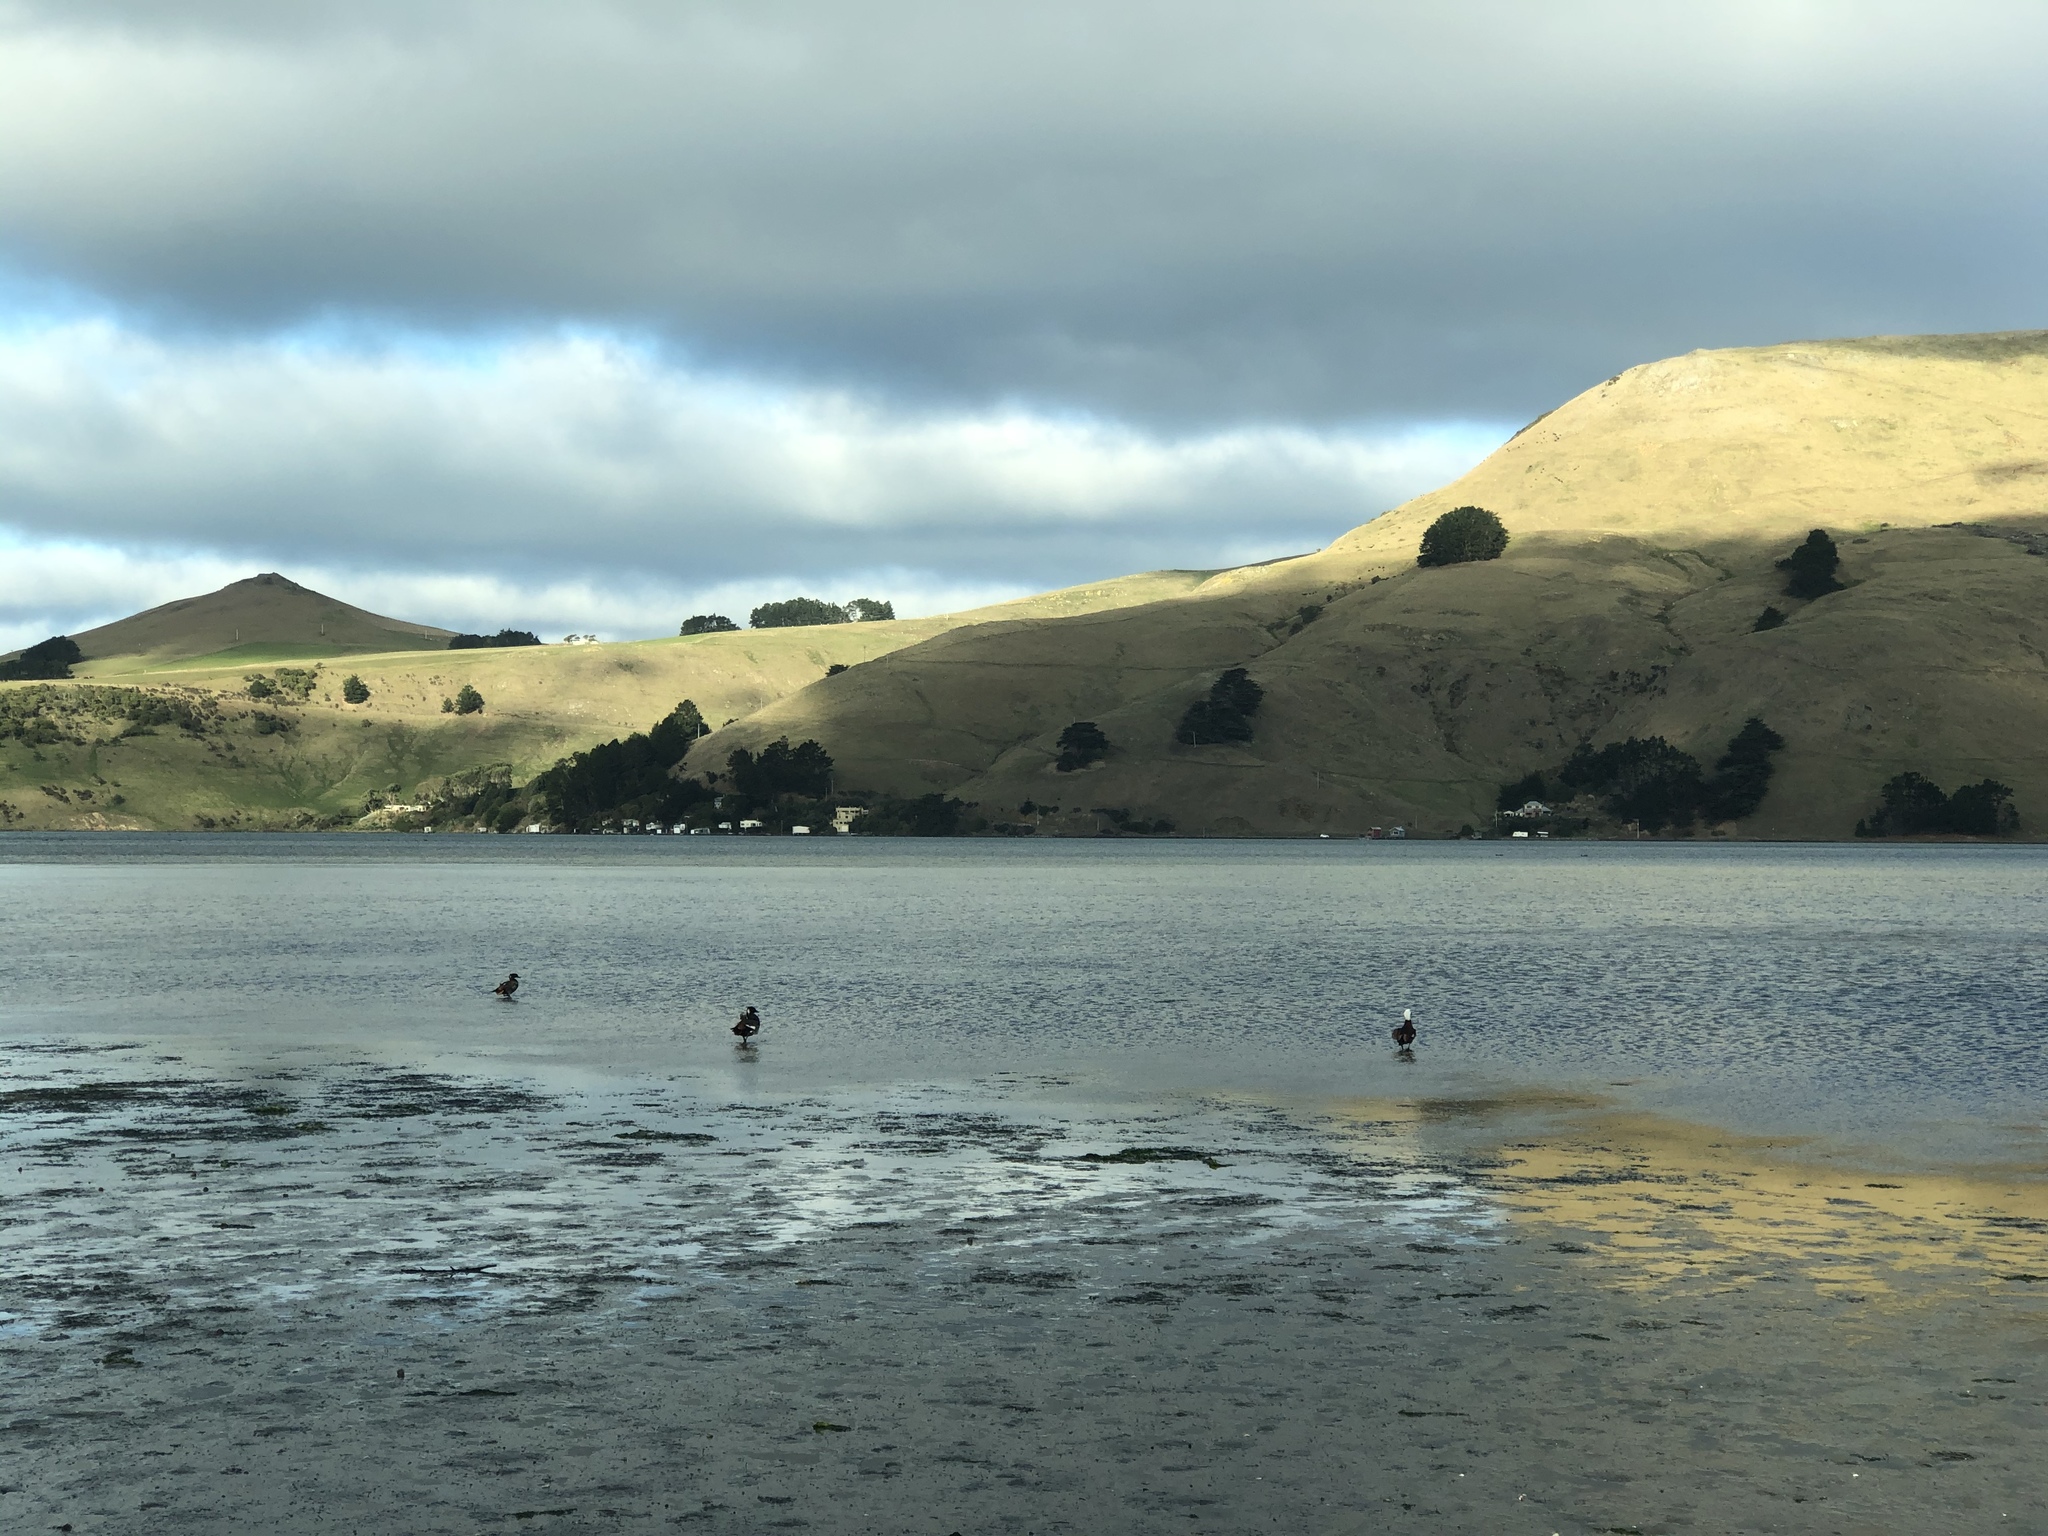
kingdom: Animalia
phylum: Chordata
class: Aves
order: Anseriformes
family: Anatidae
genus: Tadorna
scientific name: Tadorna variegata
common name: Paradise shelduck
